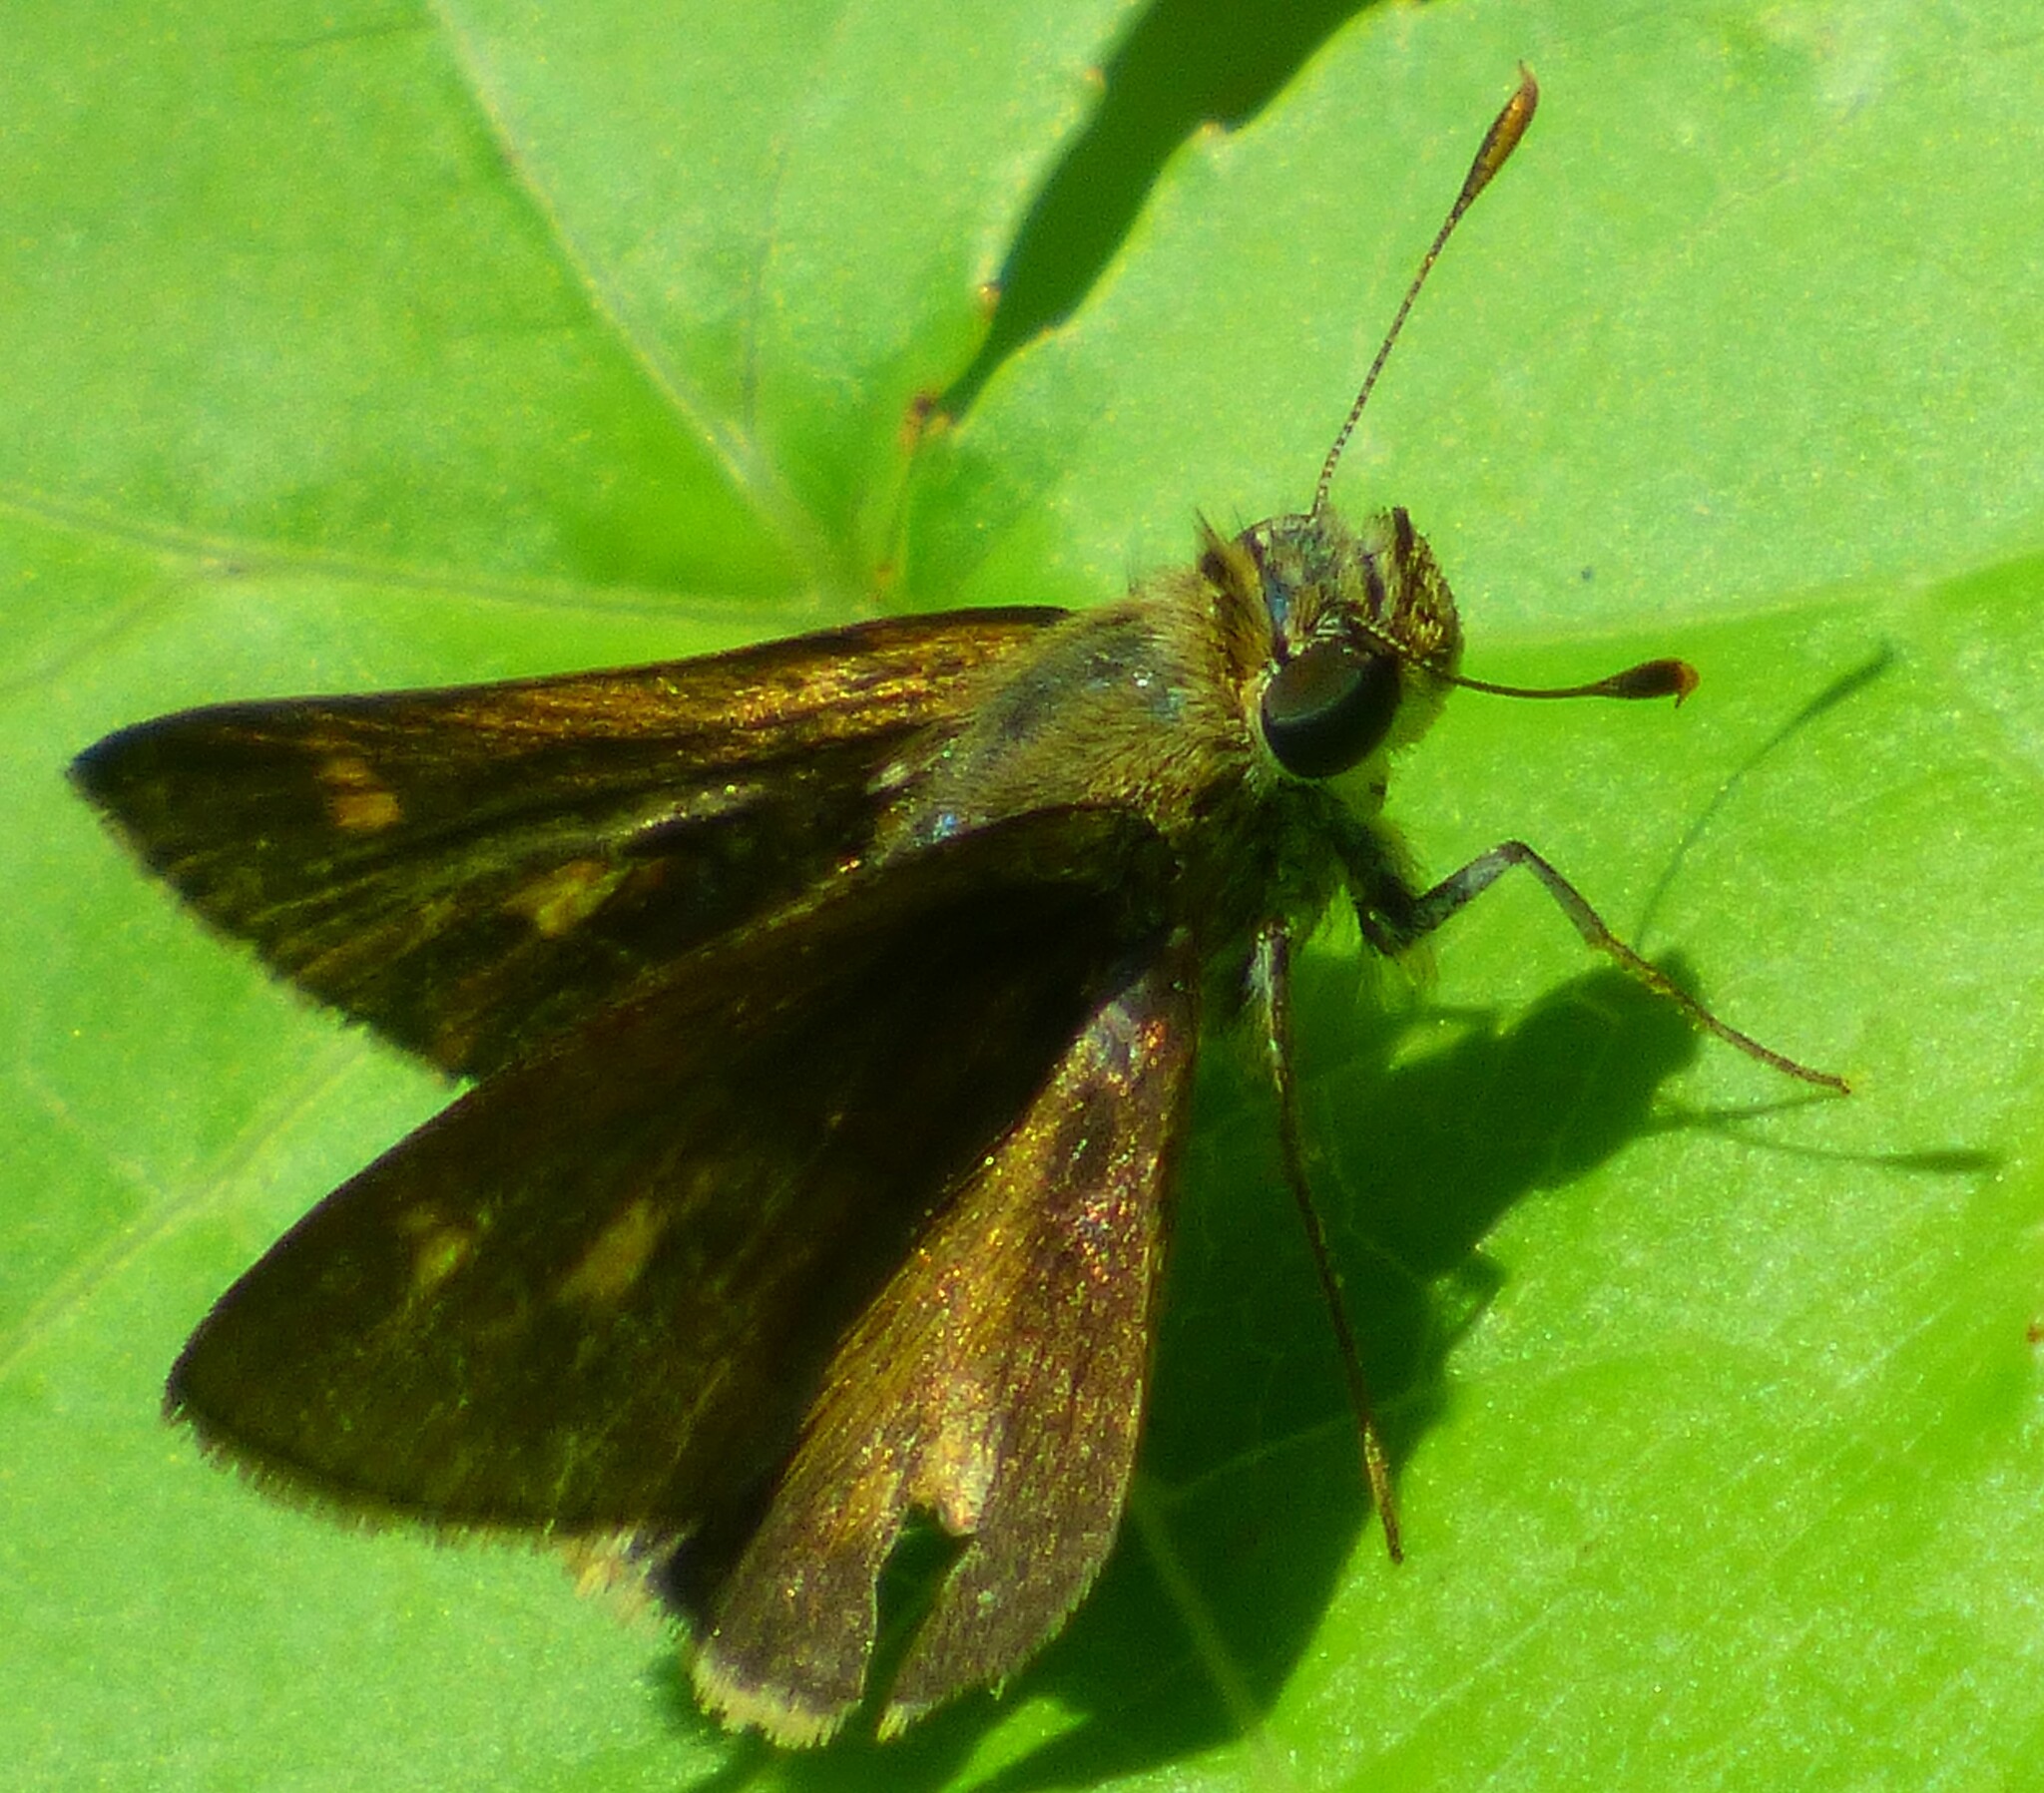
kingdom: Animalia
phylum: Arthropoda
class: Insecta
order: Lepidoptera
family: Hesperiidae
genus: Polites
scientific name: Polites otho
